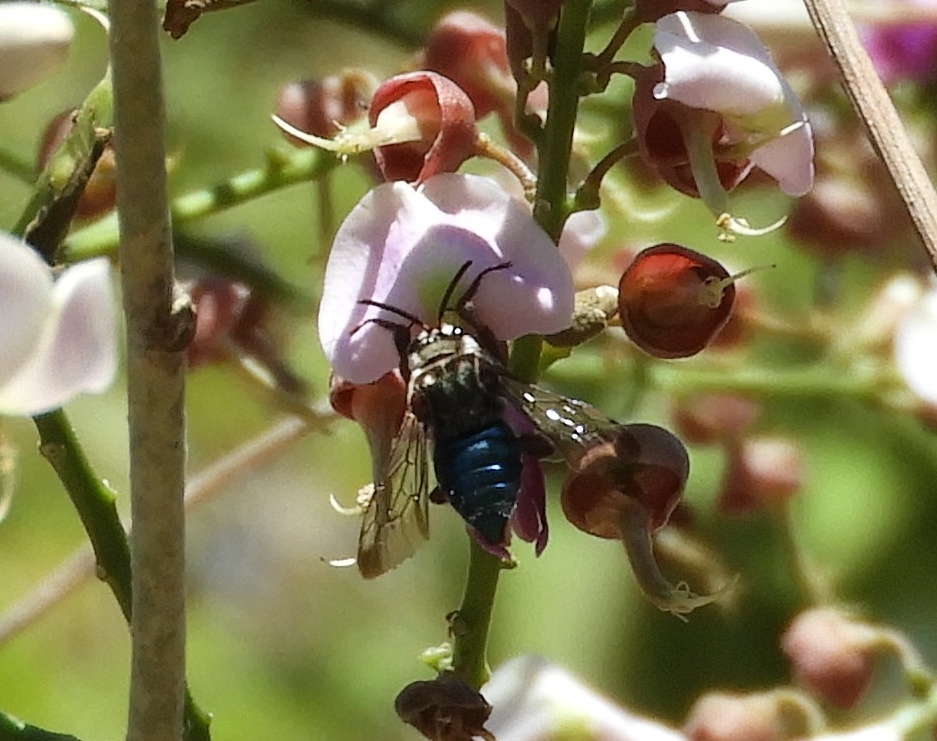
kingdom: Animalia
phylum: Arthropoda
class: Insecta
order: Hymenoptera
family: Apidae
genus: Mesoplia
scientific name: Mesoplia
